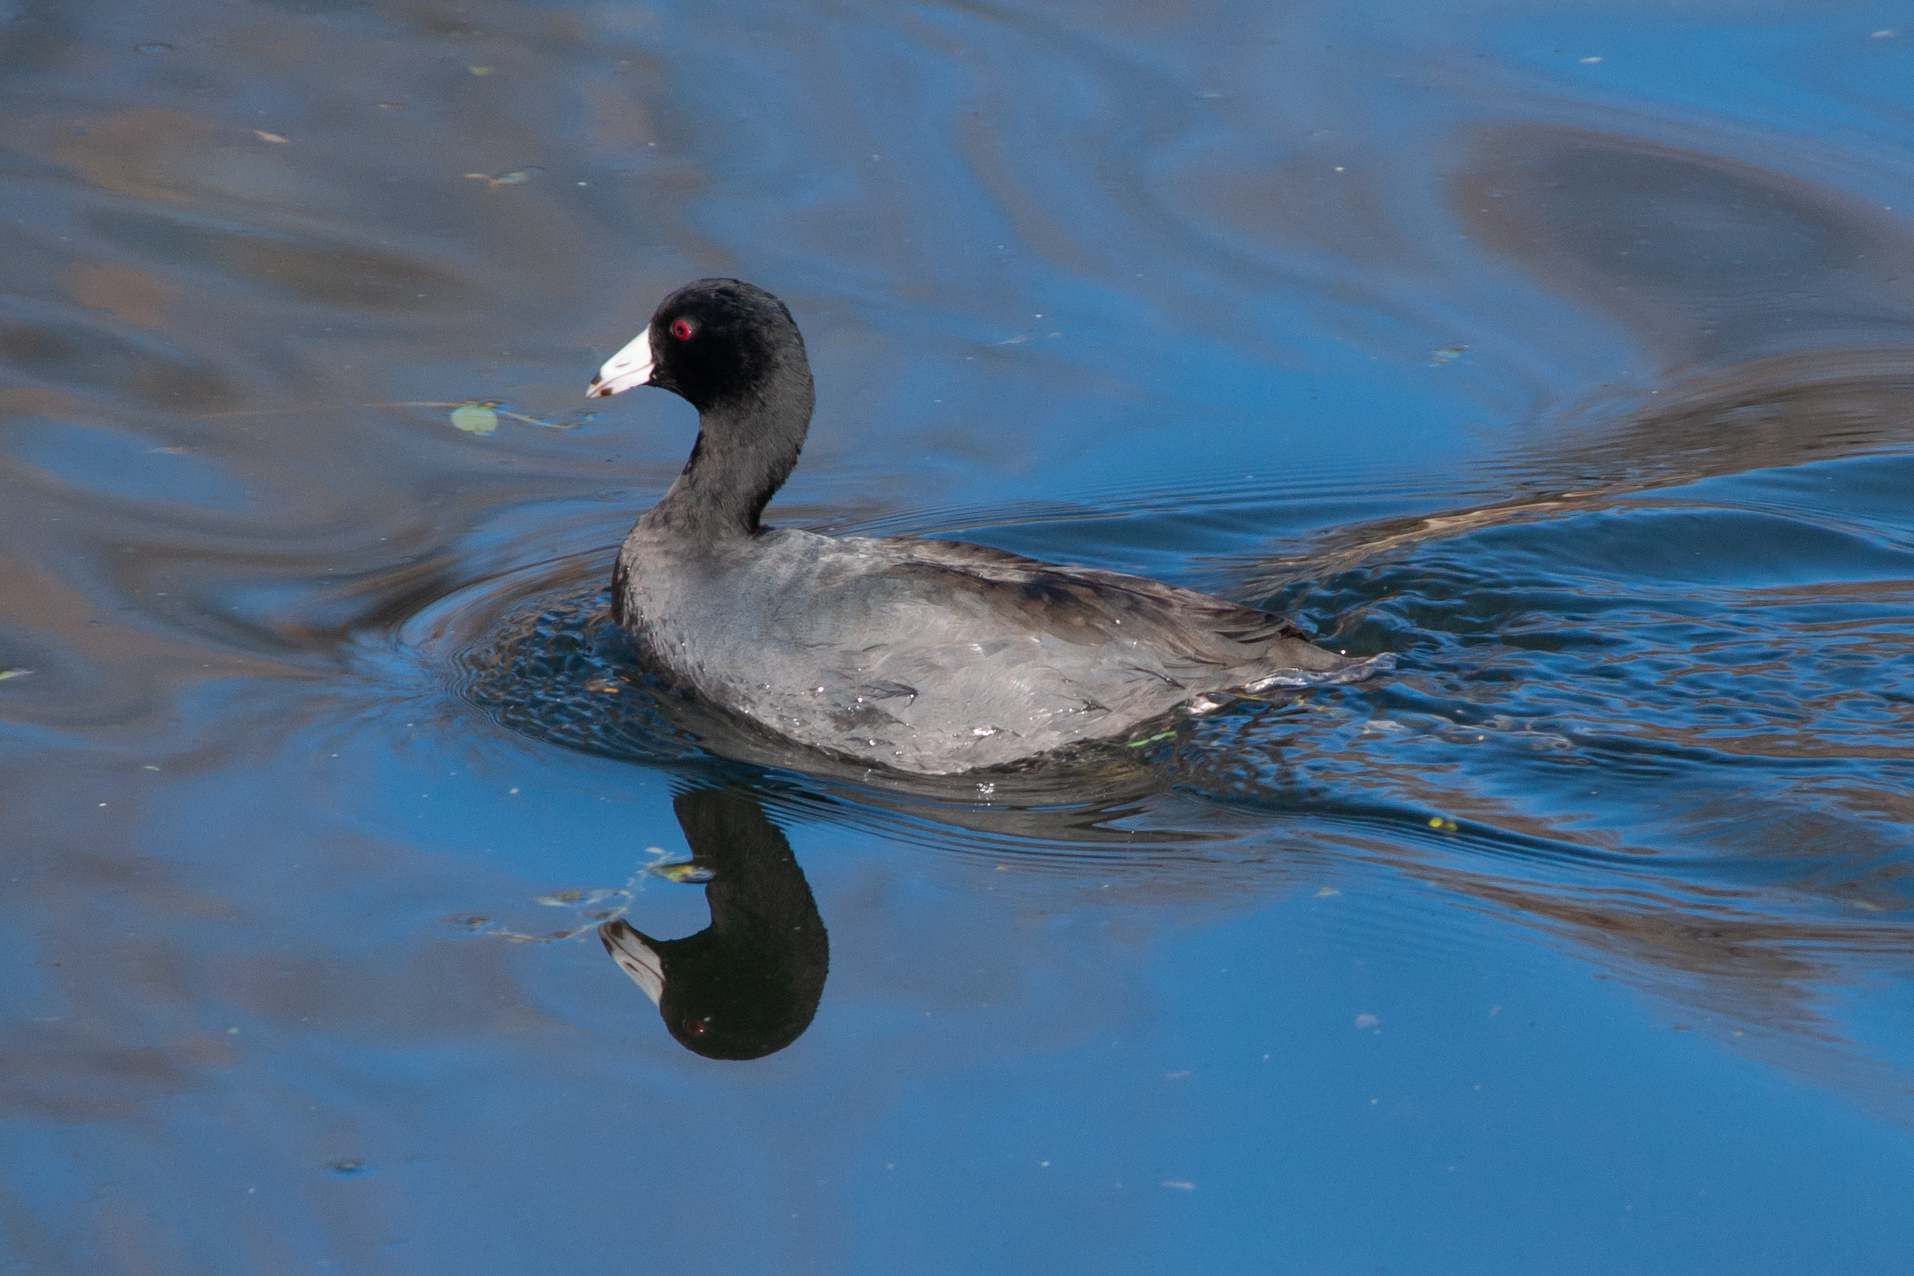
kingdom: Animalia
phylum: Chordata
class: Aves
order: Gruiformes
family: Rallidae
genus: Fulica
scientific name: Fulica americana
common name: American coot
